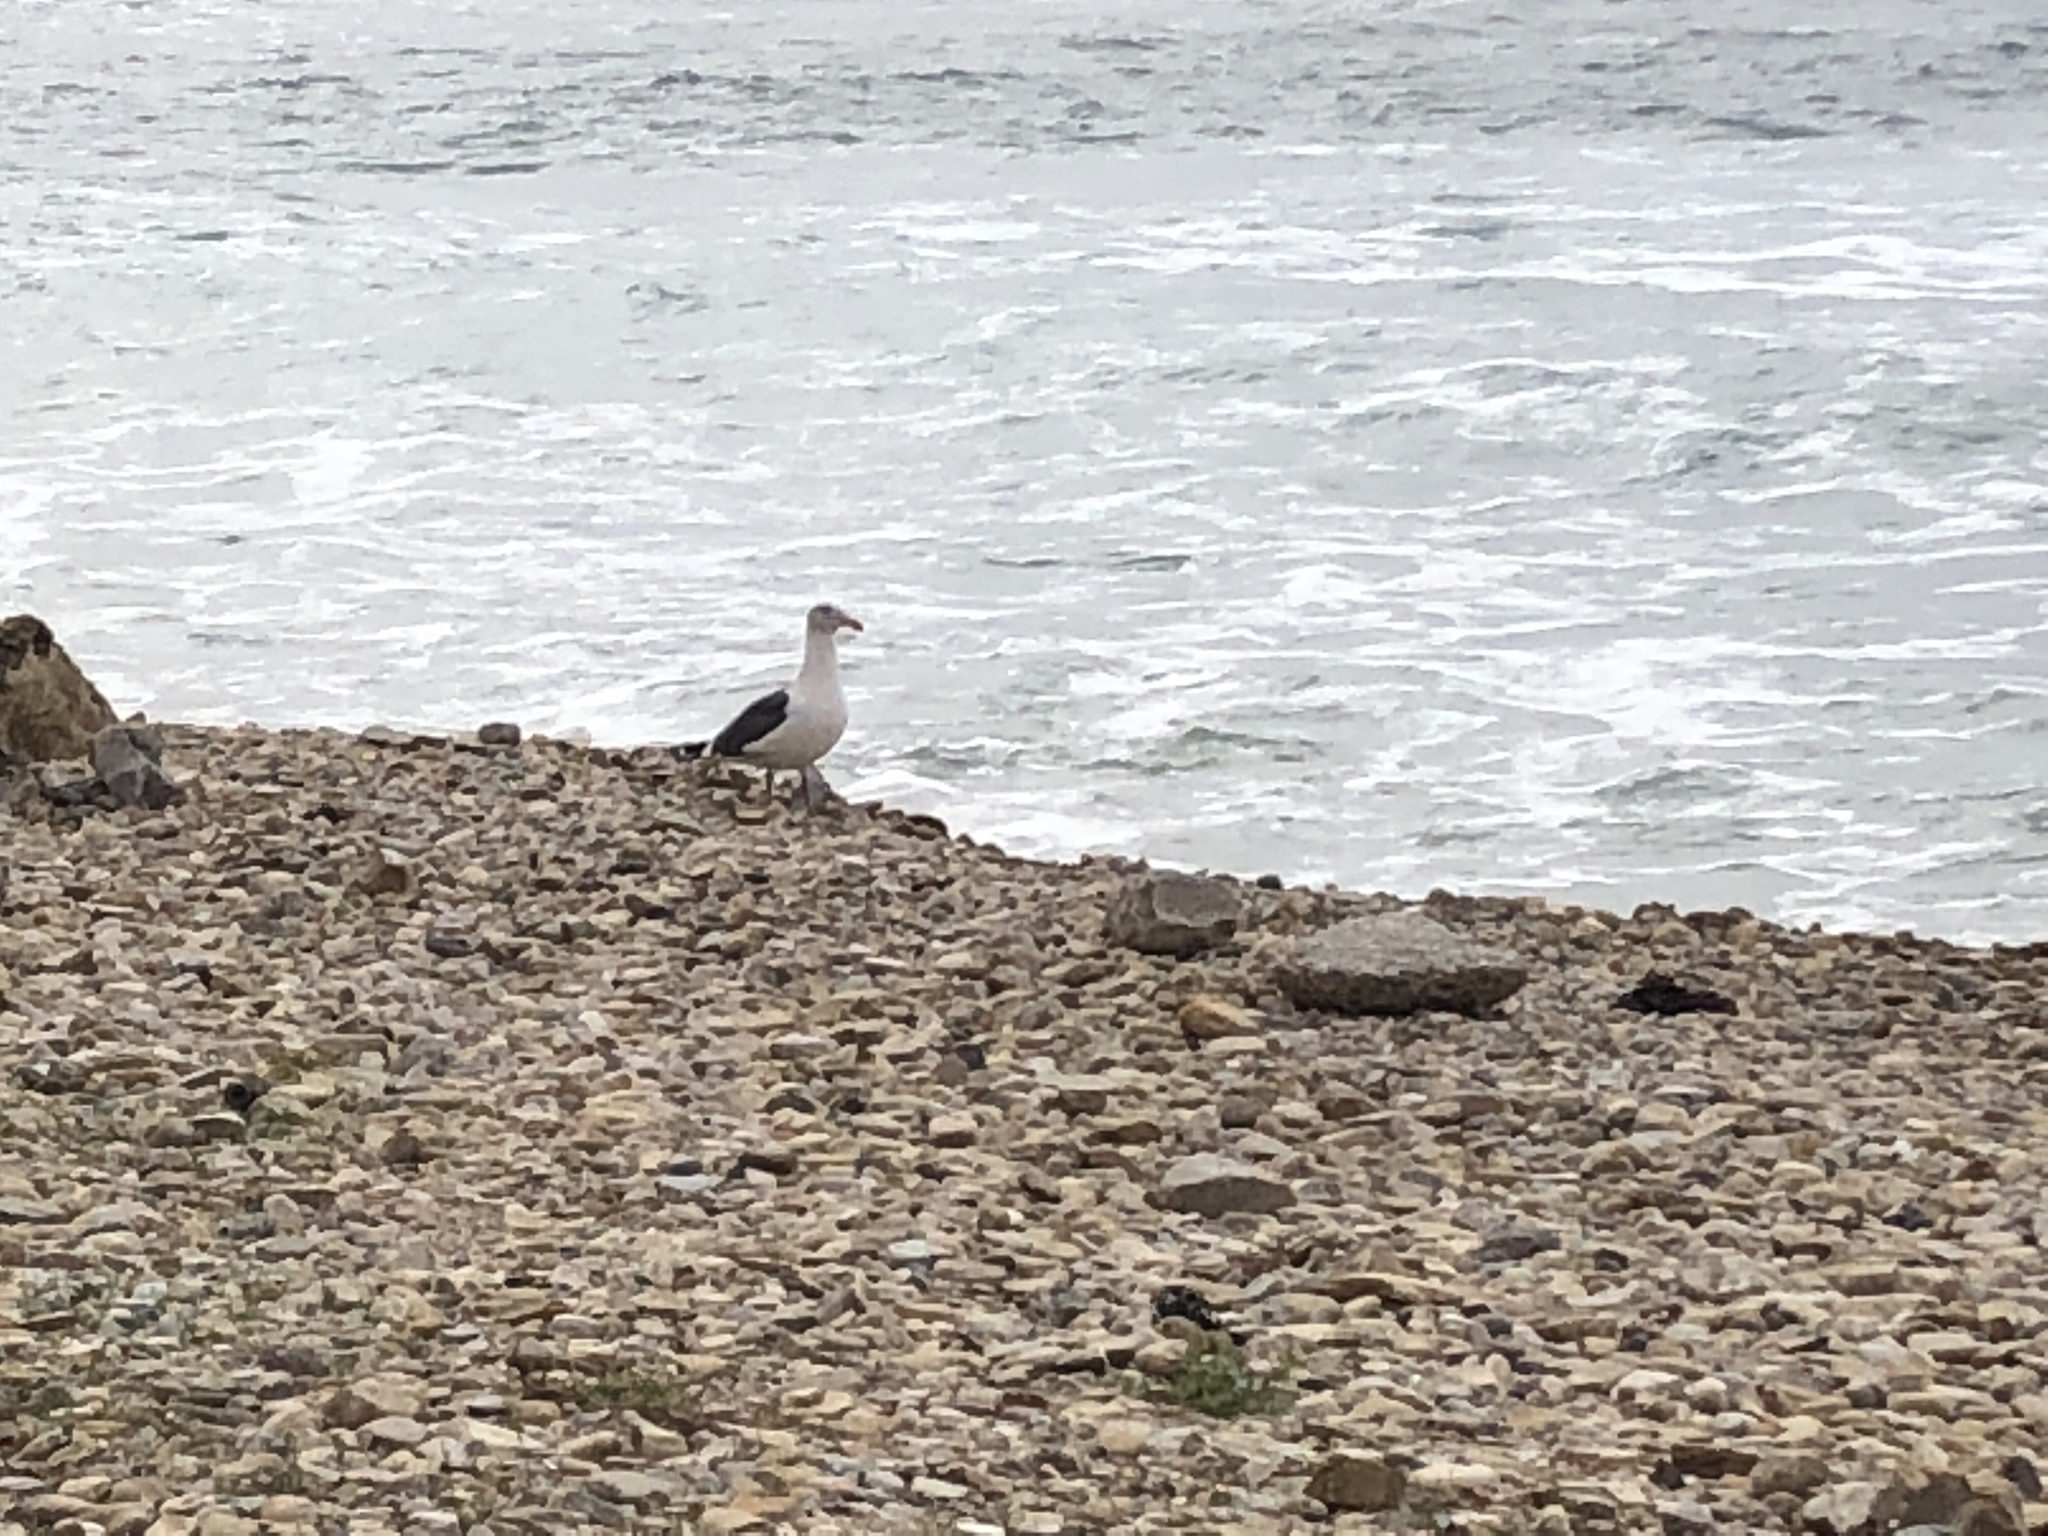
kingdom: Animalia
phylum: Chordata
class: Aves
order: Charadriiformes
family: Laridae
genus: Larus
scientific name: Larus occidentalis
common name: Western gull
